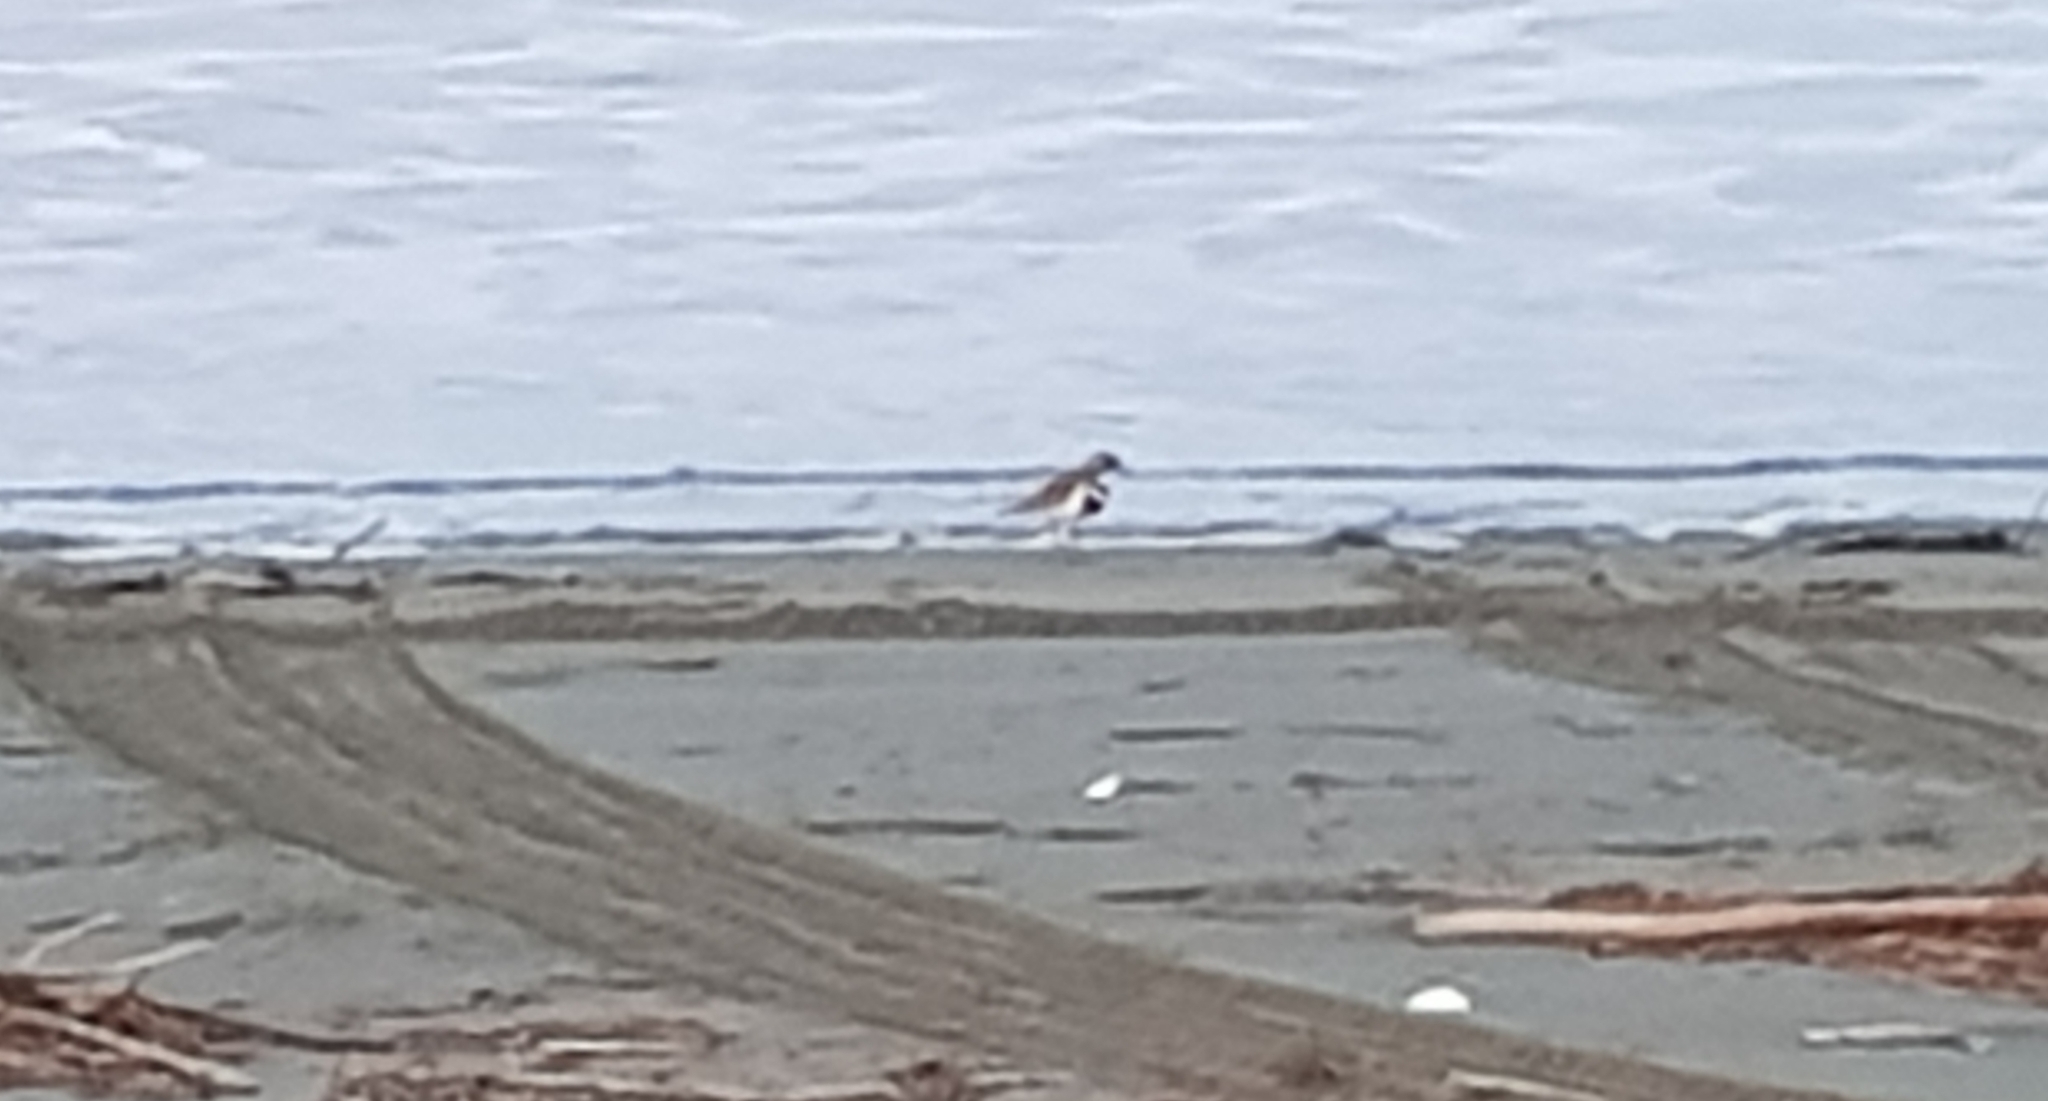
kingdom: Animalia
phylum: Chordata
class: Aves
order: Charadriiformes
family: Charadriidae
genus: Anarhynchus
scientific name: Anarhynchus
